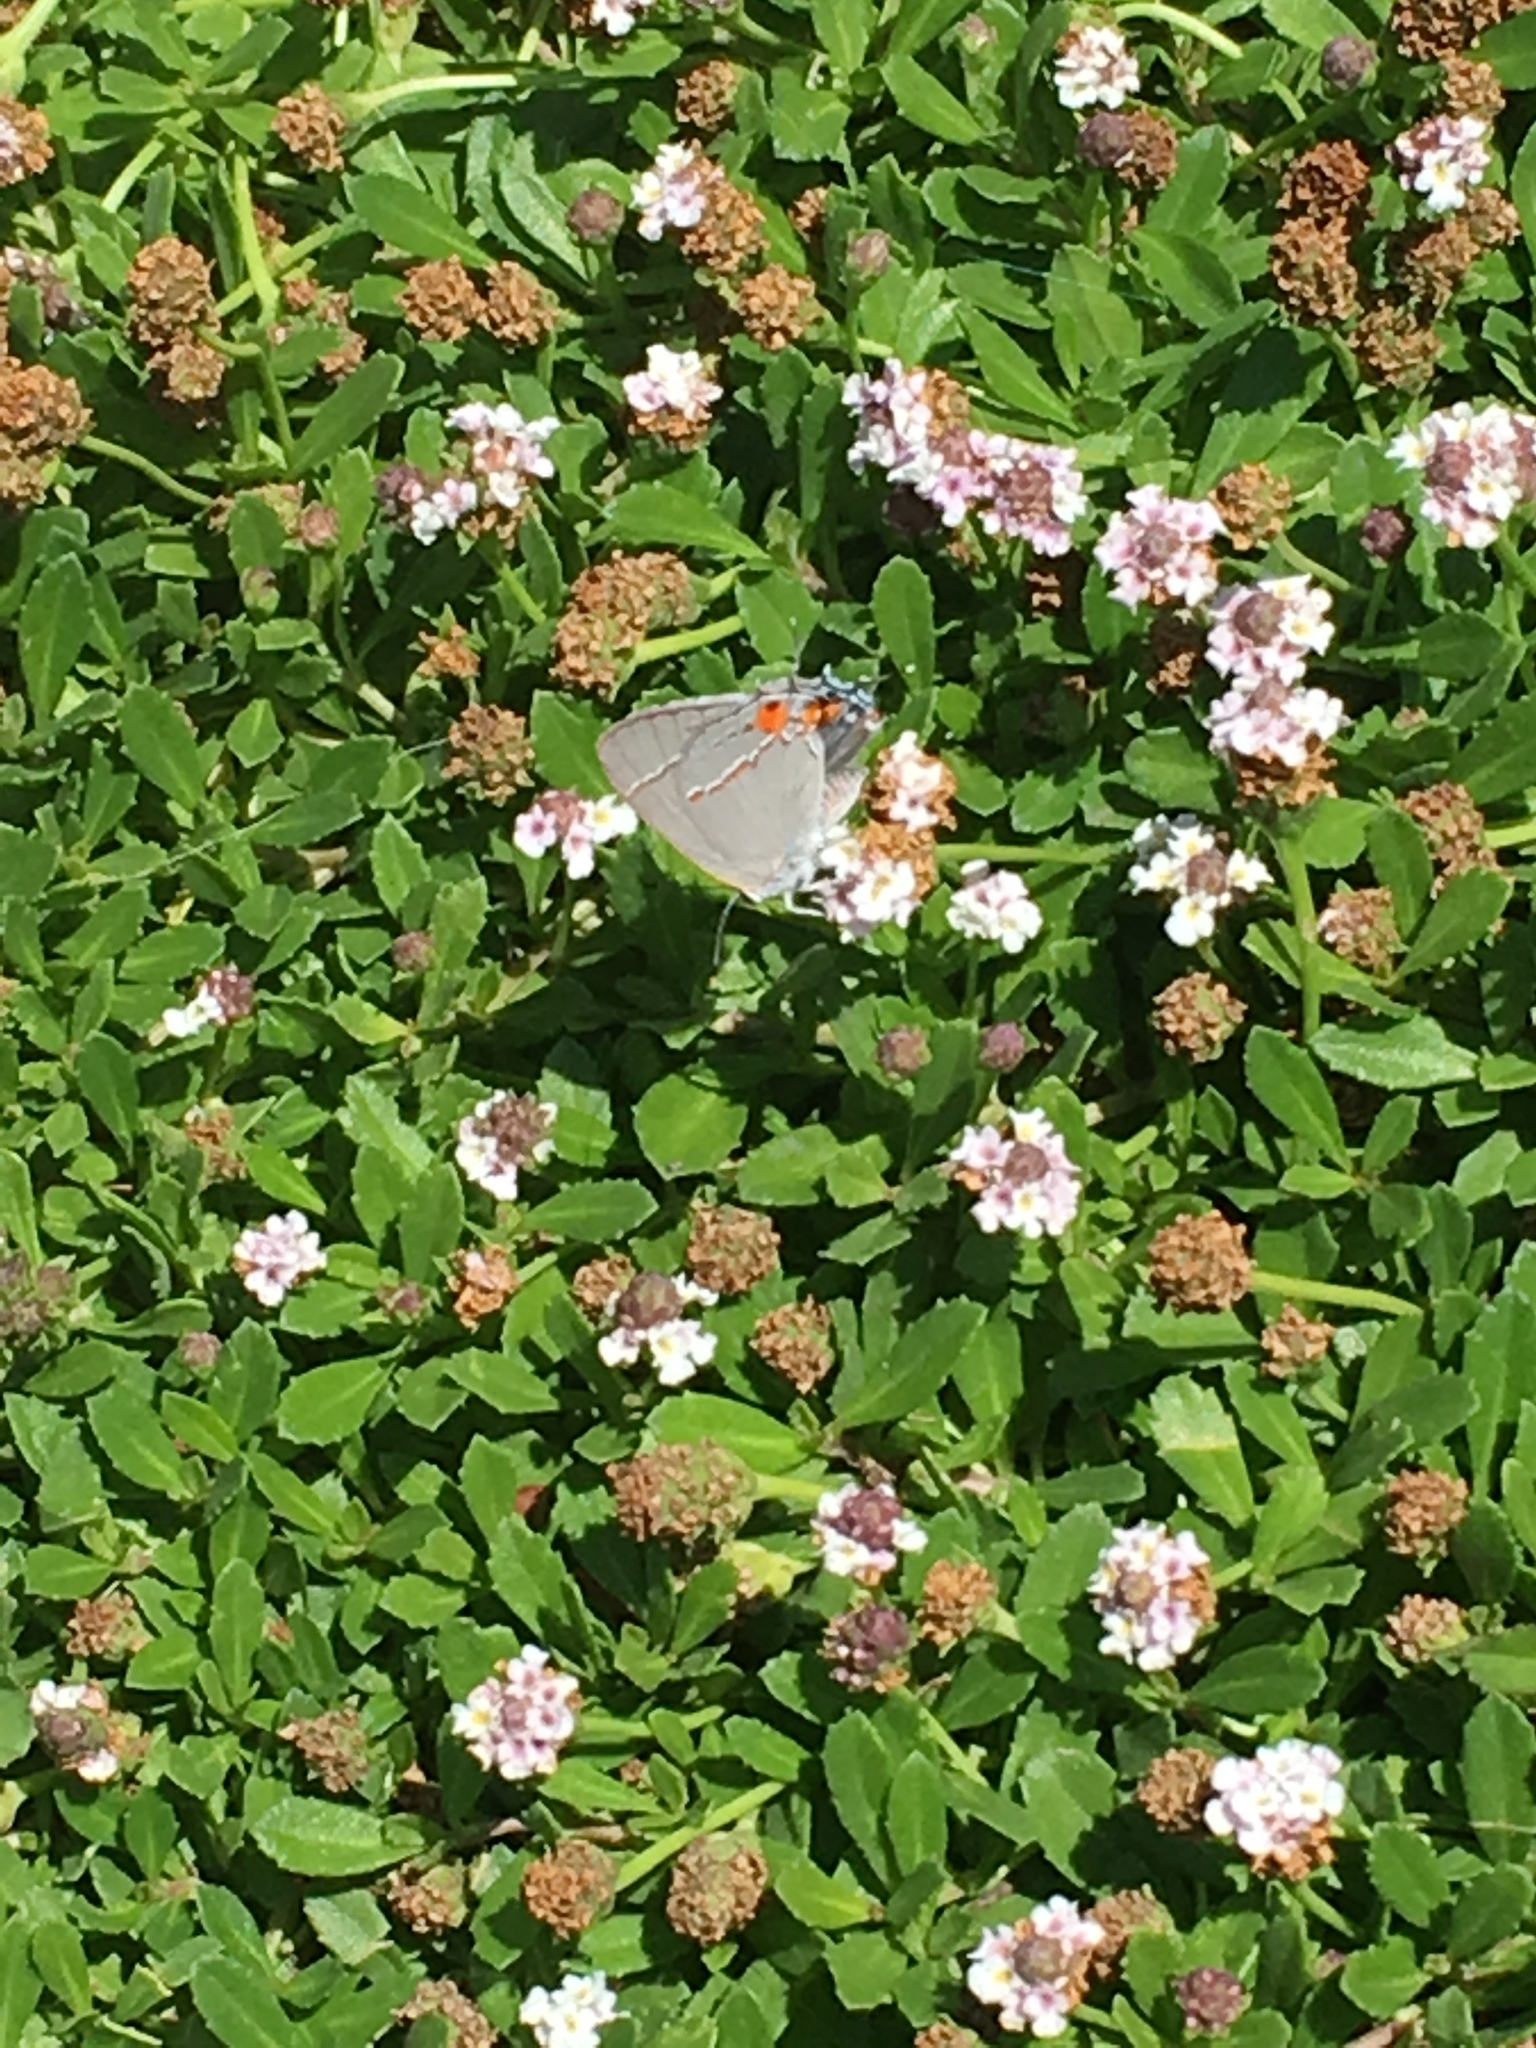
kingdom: Animalia
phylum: Arthropoda
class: Insecta
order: Lepidoptera
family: Lycaenidae
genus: Strymon
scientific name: Strymon melinus
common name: Gray hairstreak
